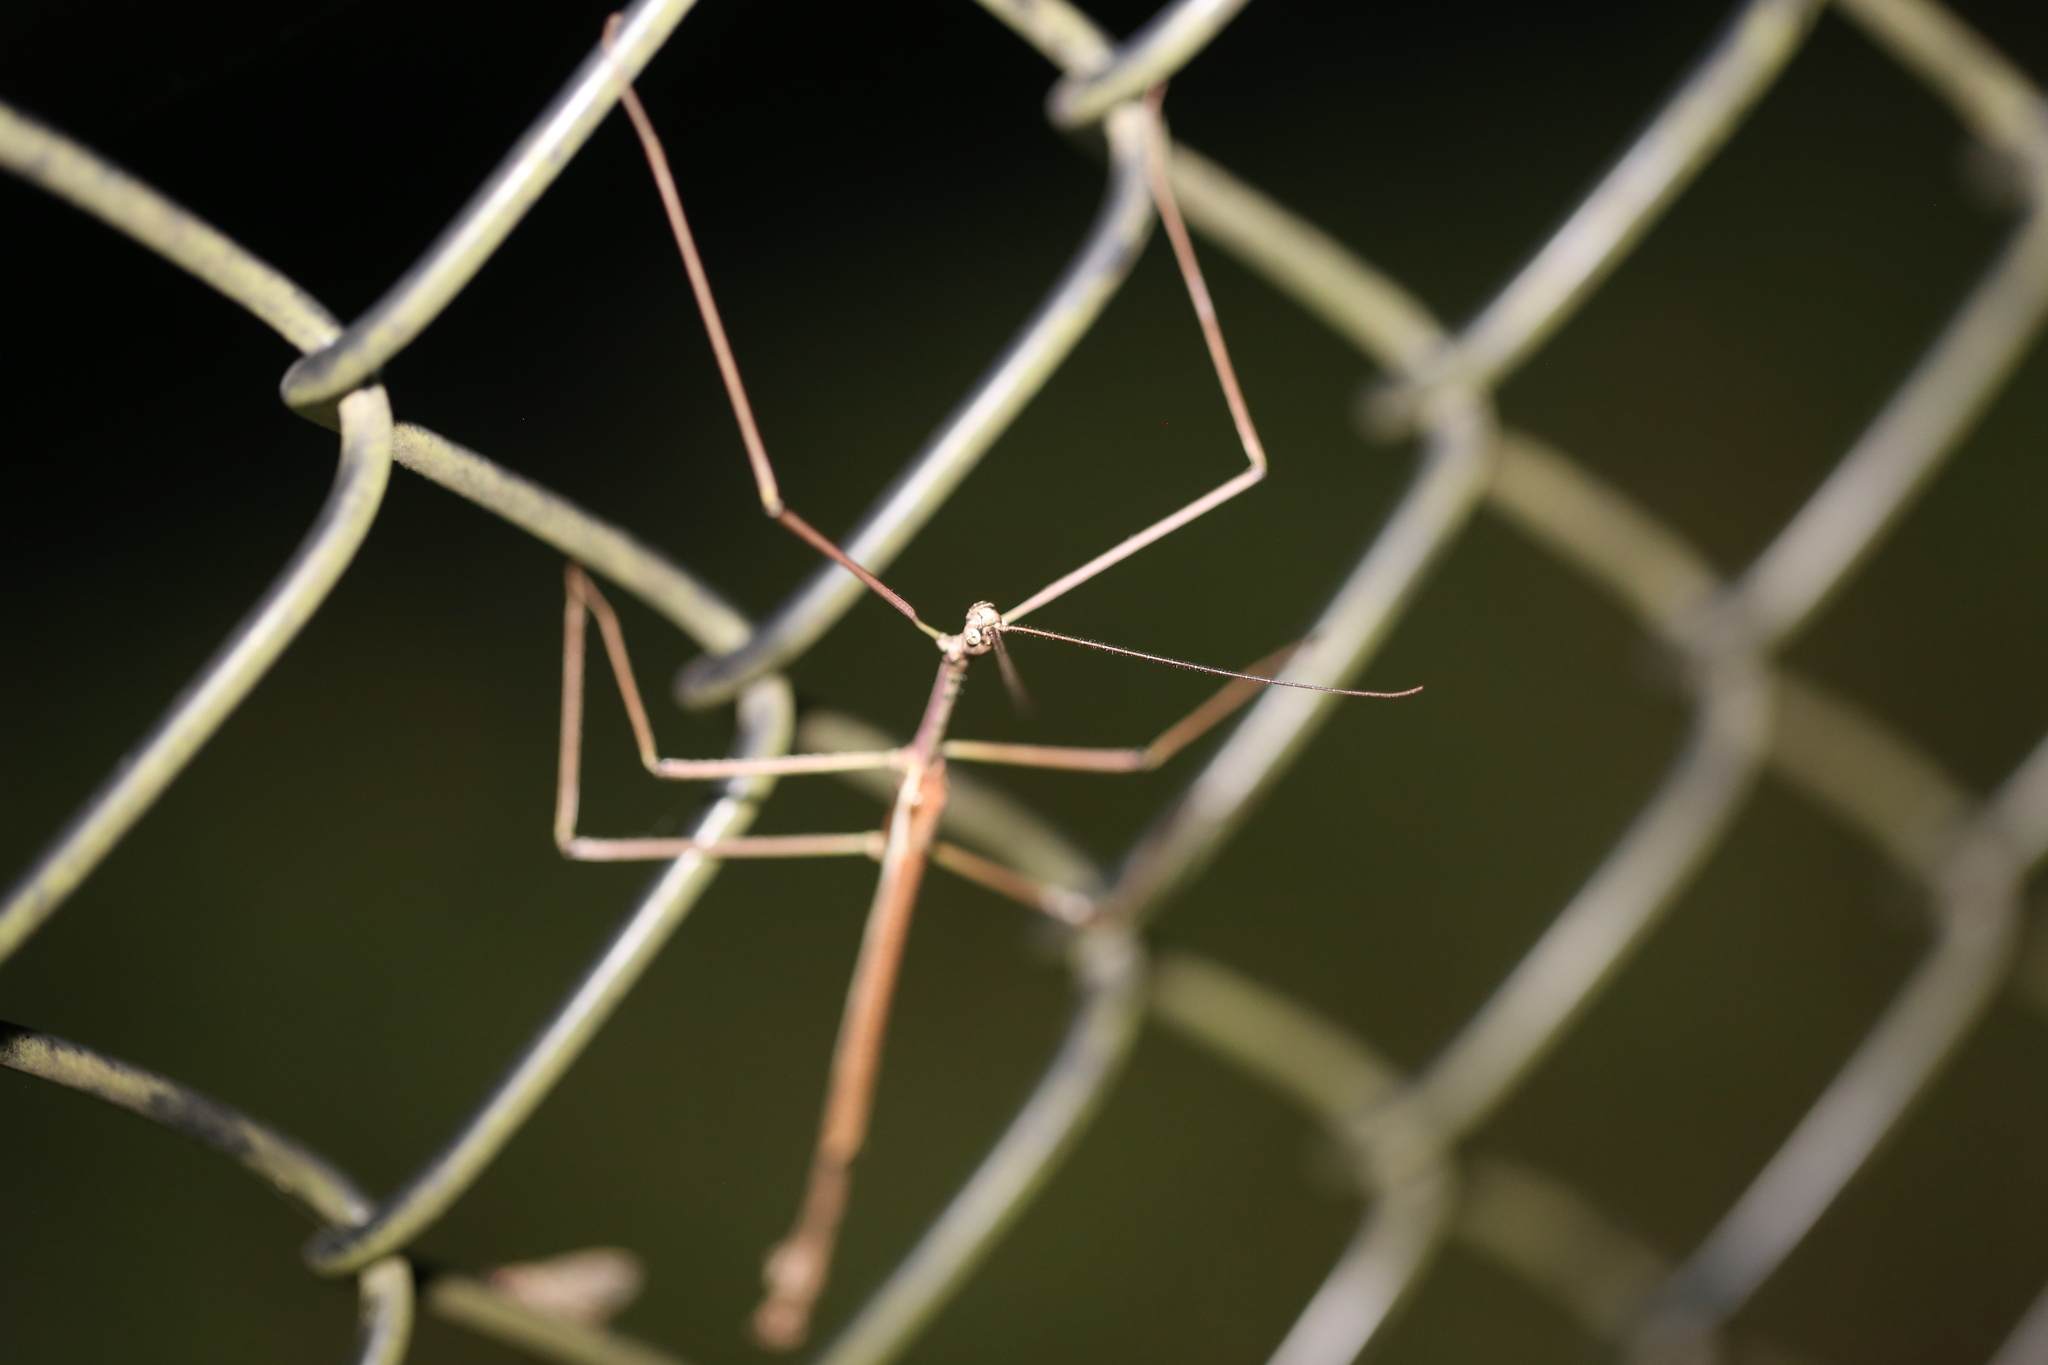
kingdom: Animalia
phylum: Arthropoda
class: Insecta
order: Phasmida
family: Phasmatidae
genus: Anchiale
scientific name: Anchiale austrotessulata
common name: Tessellated stick-insect
